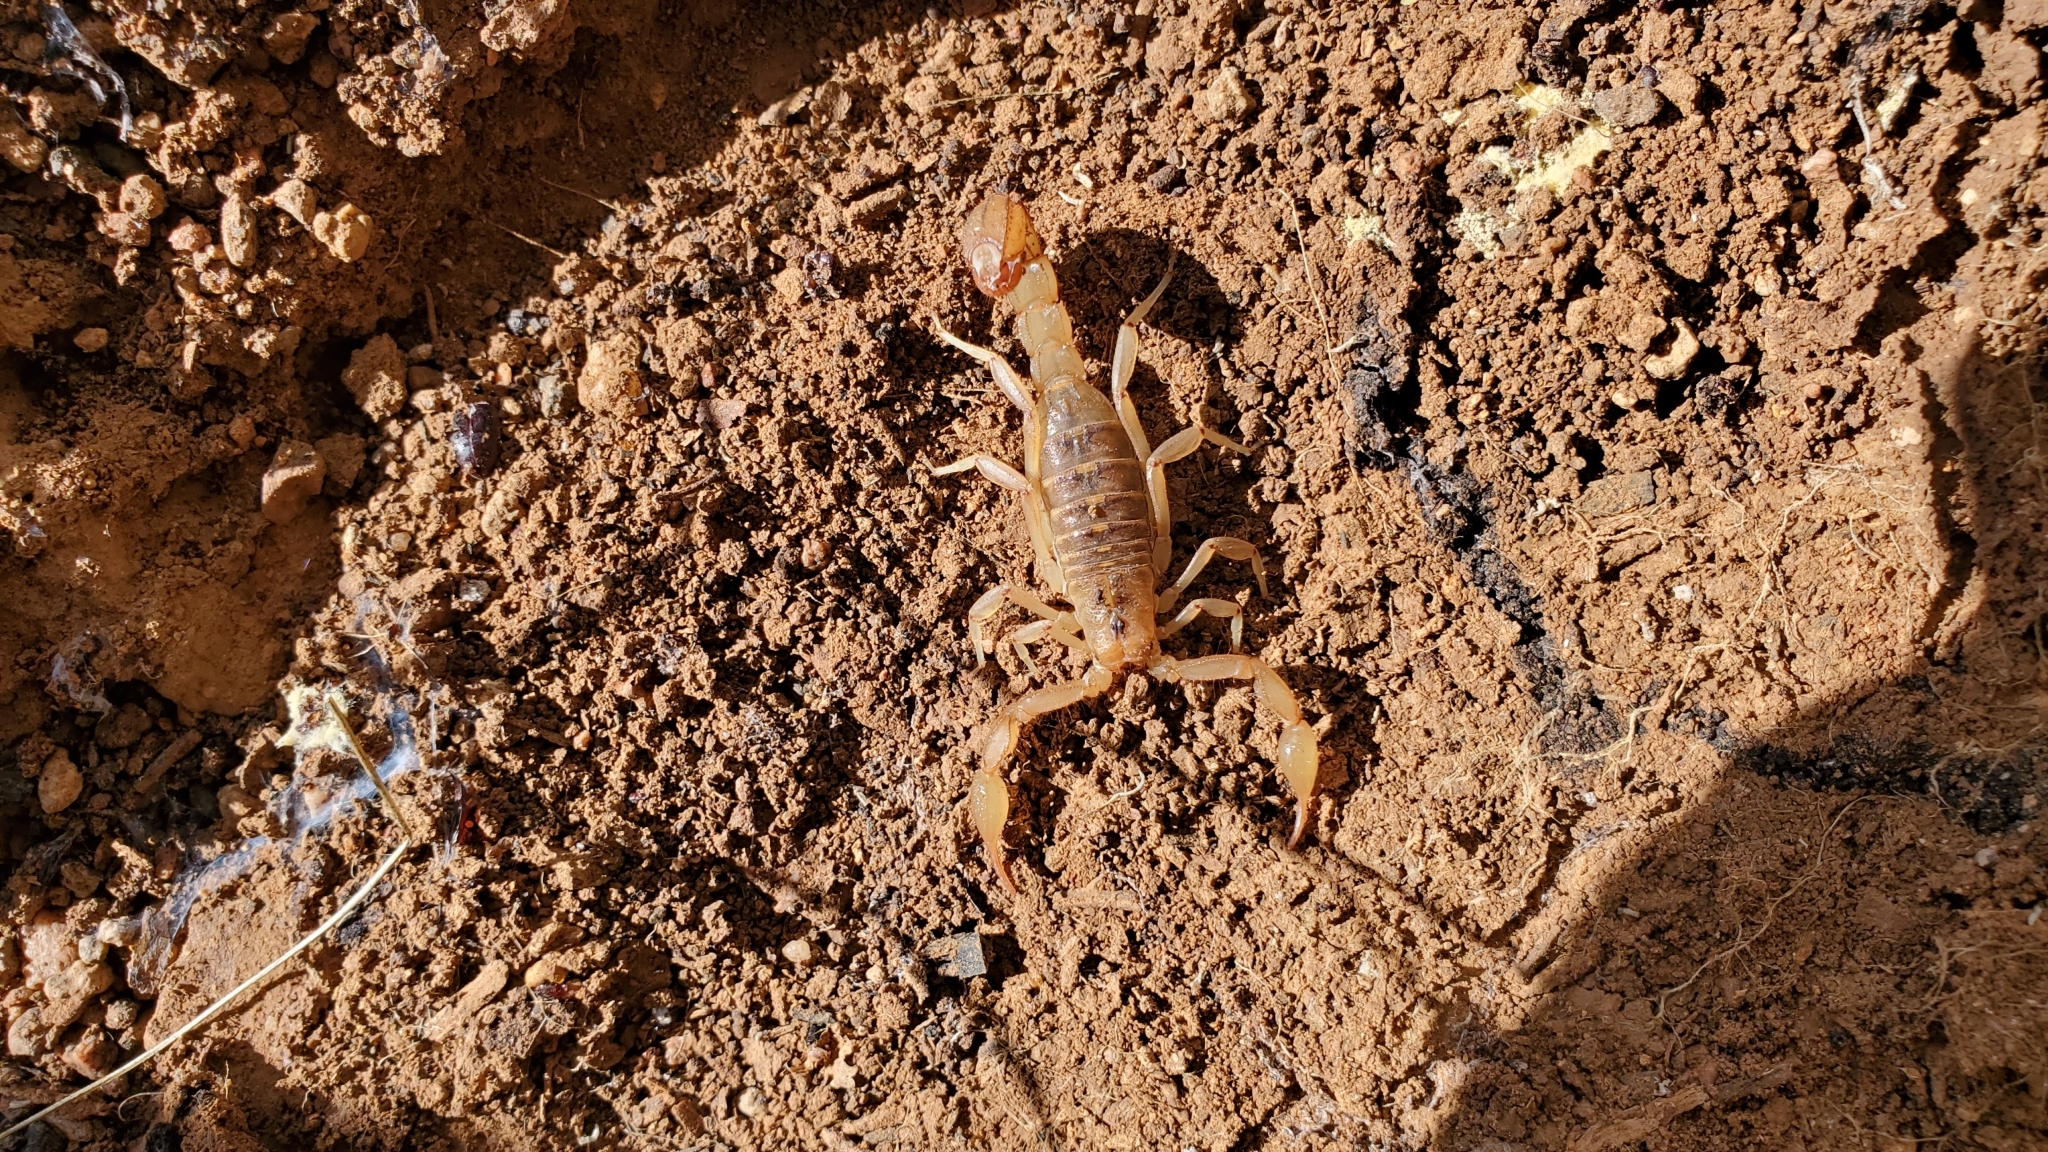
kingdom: Animalia
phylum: Arthropoda
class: Arachnida
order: Scorpiones
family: Vaejovidae
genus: Paravaejovis
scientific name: Paravaejovis spinigerus
